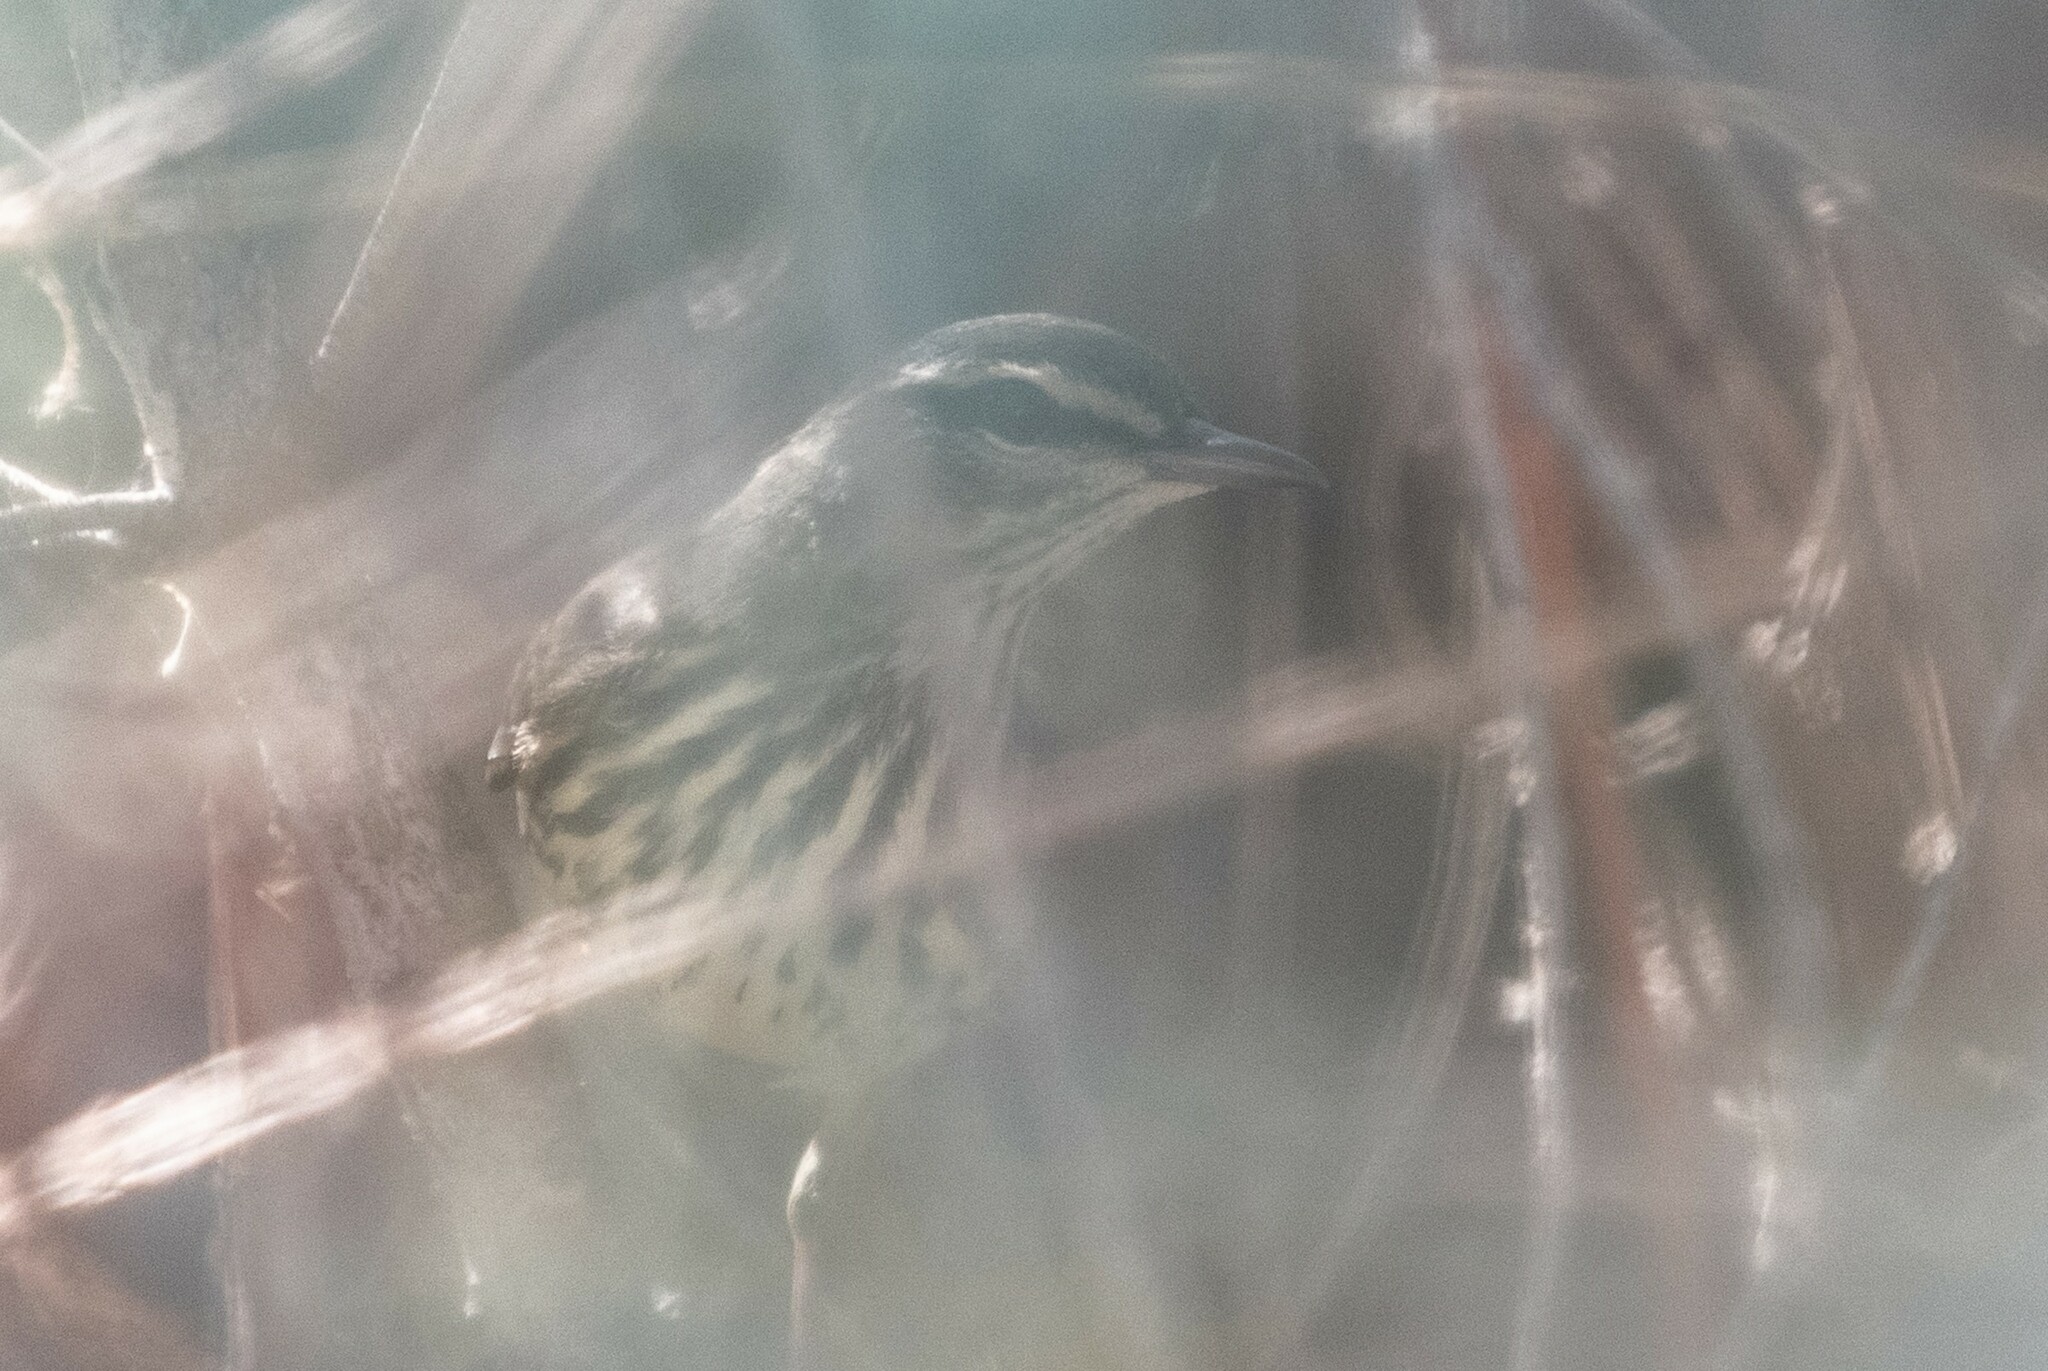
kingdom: Animalia
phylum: Chordata
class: Aves
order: Passeriformes
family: Parulidae
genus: Parkesia
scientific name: Parkesia noveboracensis
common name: Northern waterthrush
